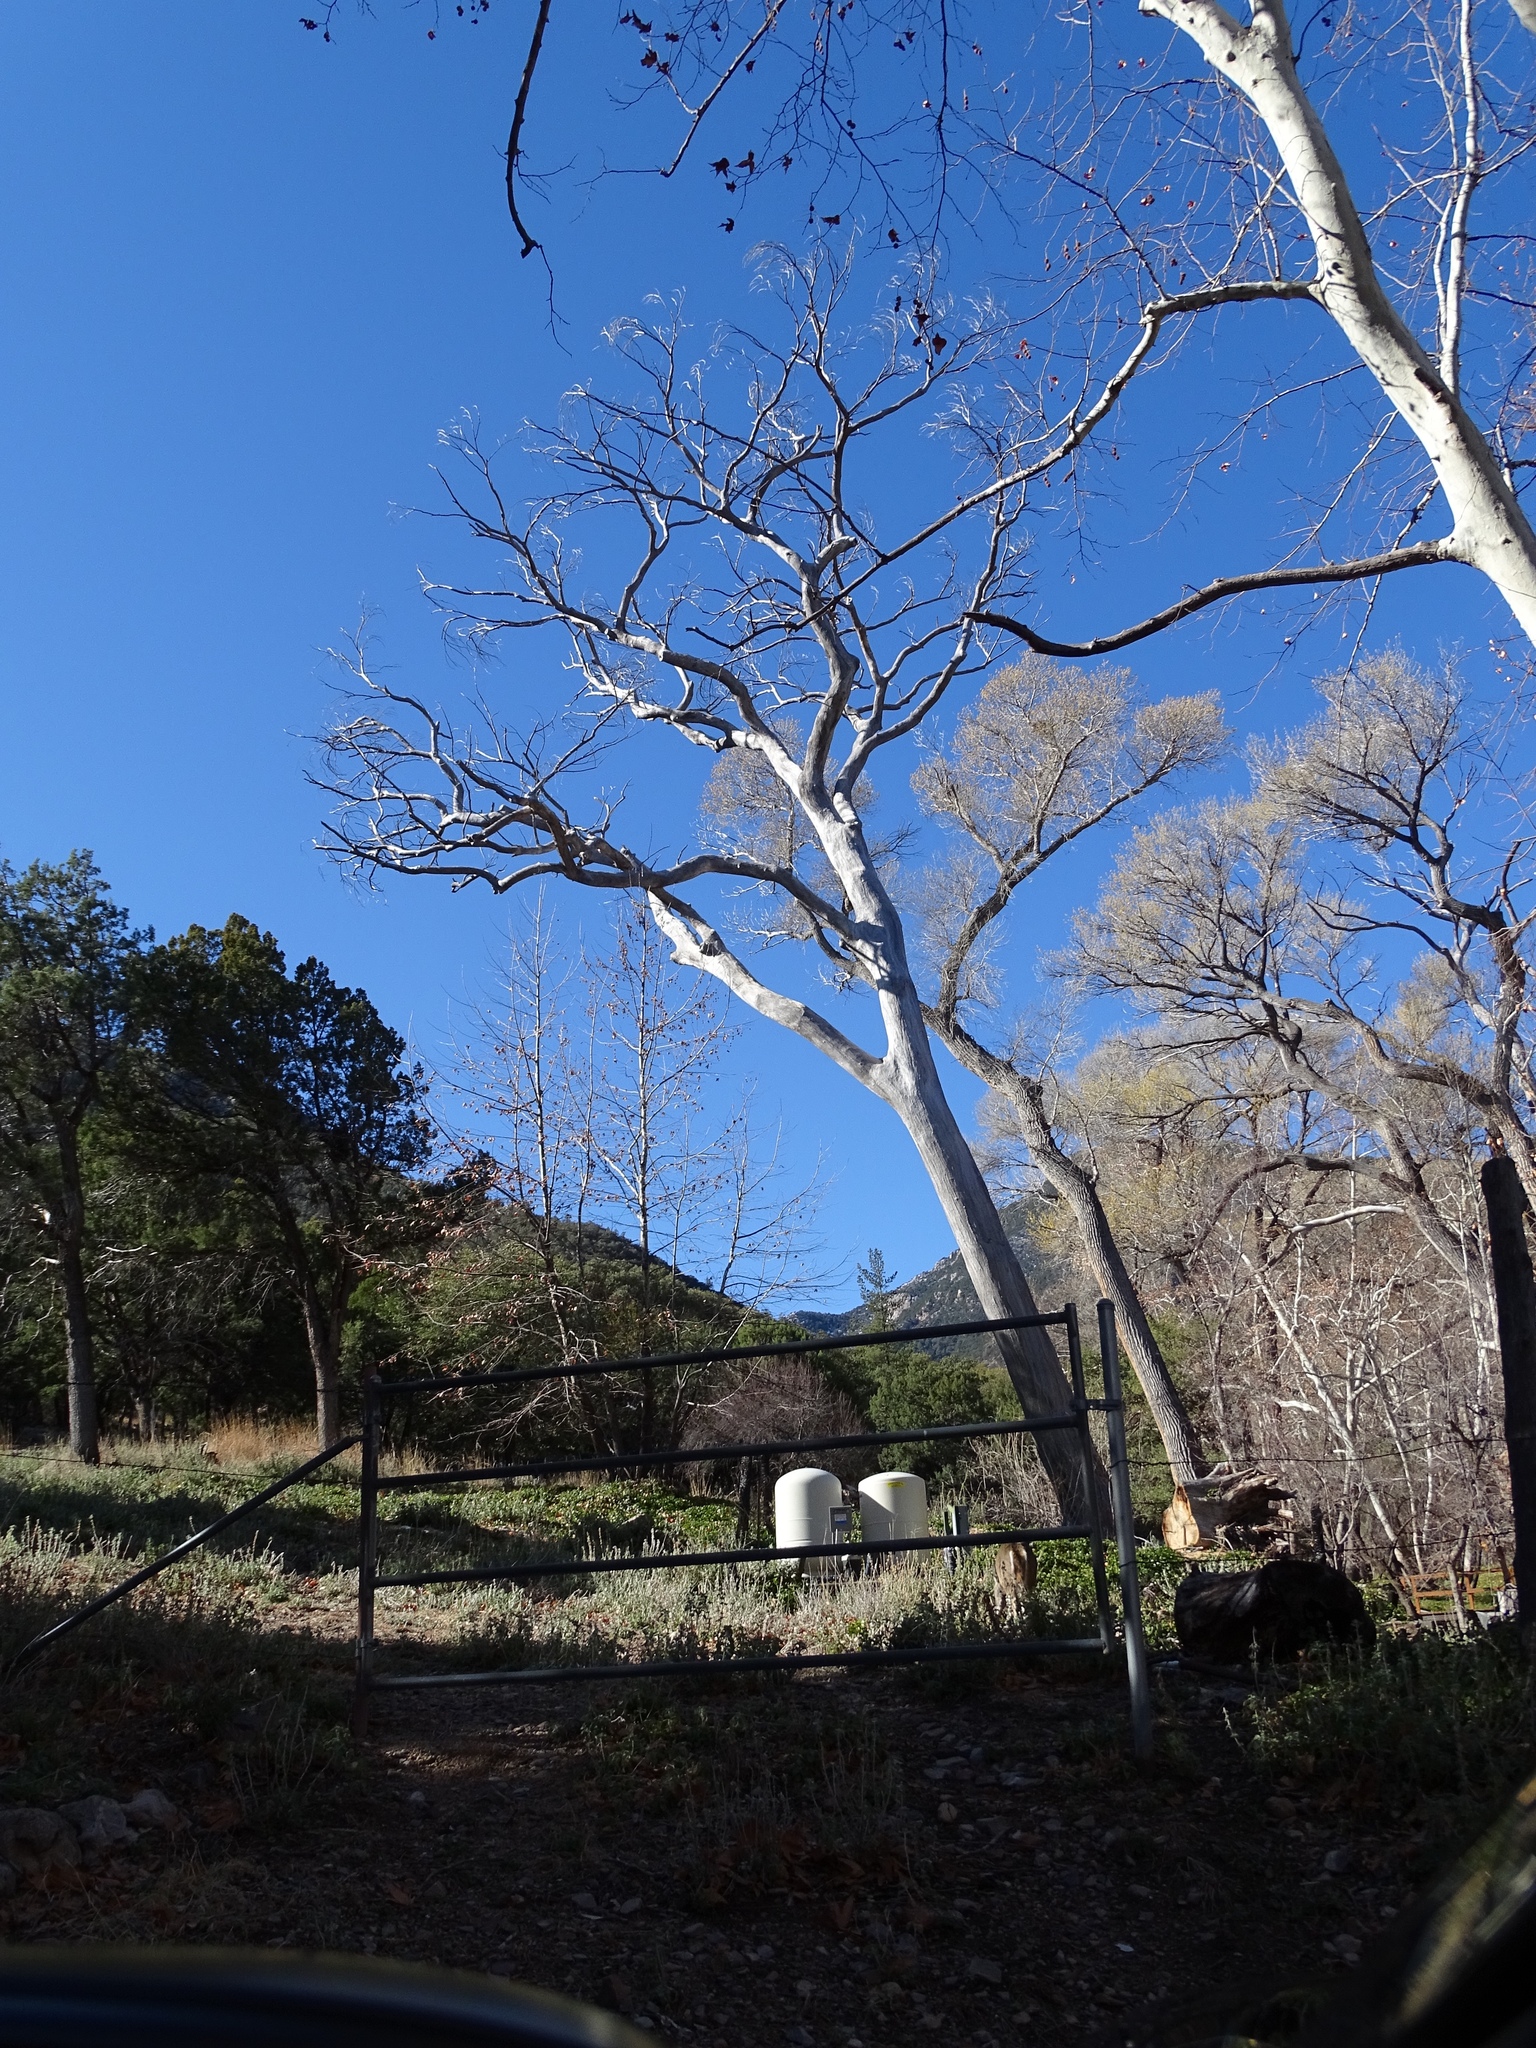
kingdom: Plantae
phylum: Tracheophyta
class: Magnoliopsida
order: Malpighiales
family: Salicaceae
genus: Populus
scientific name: Populus fremontii
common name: Fremont's cottonwood
